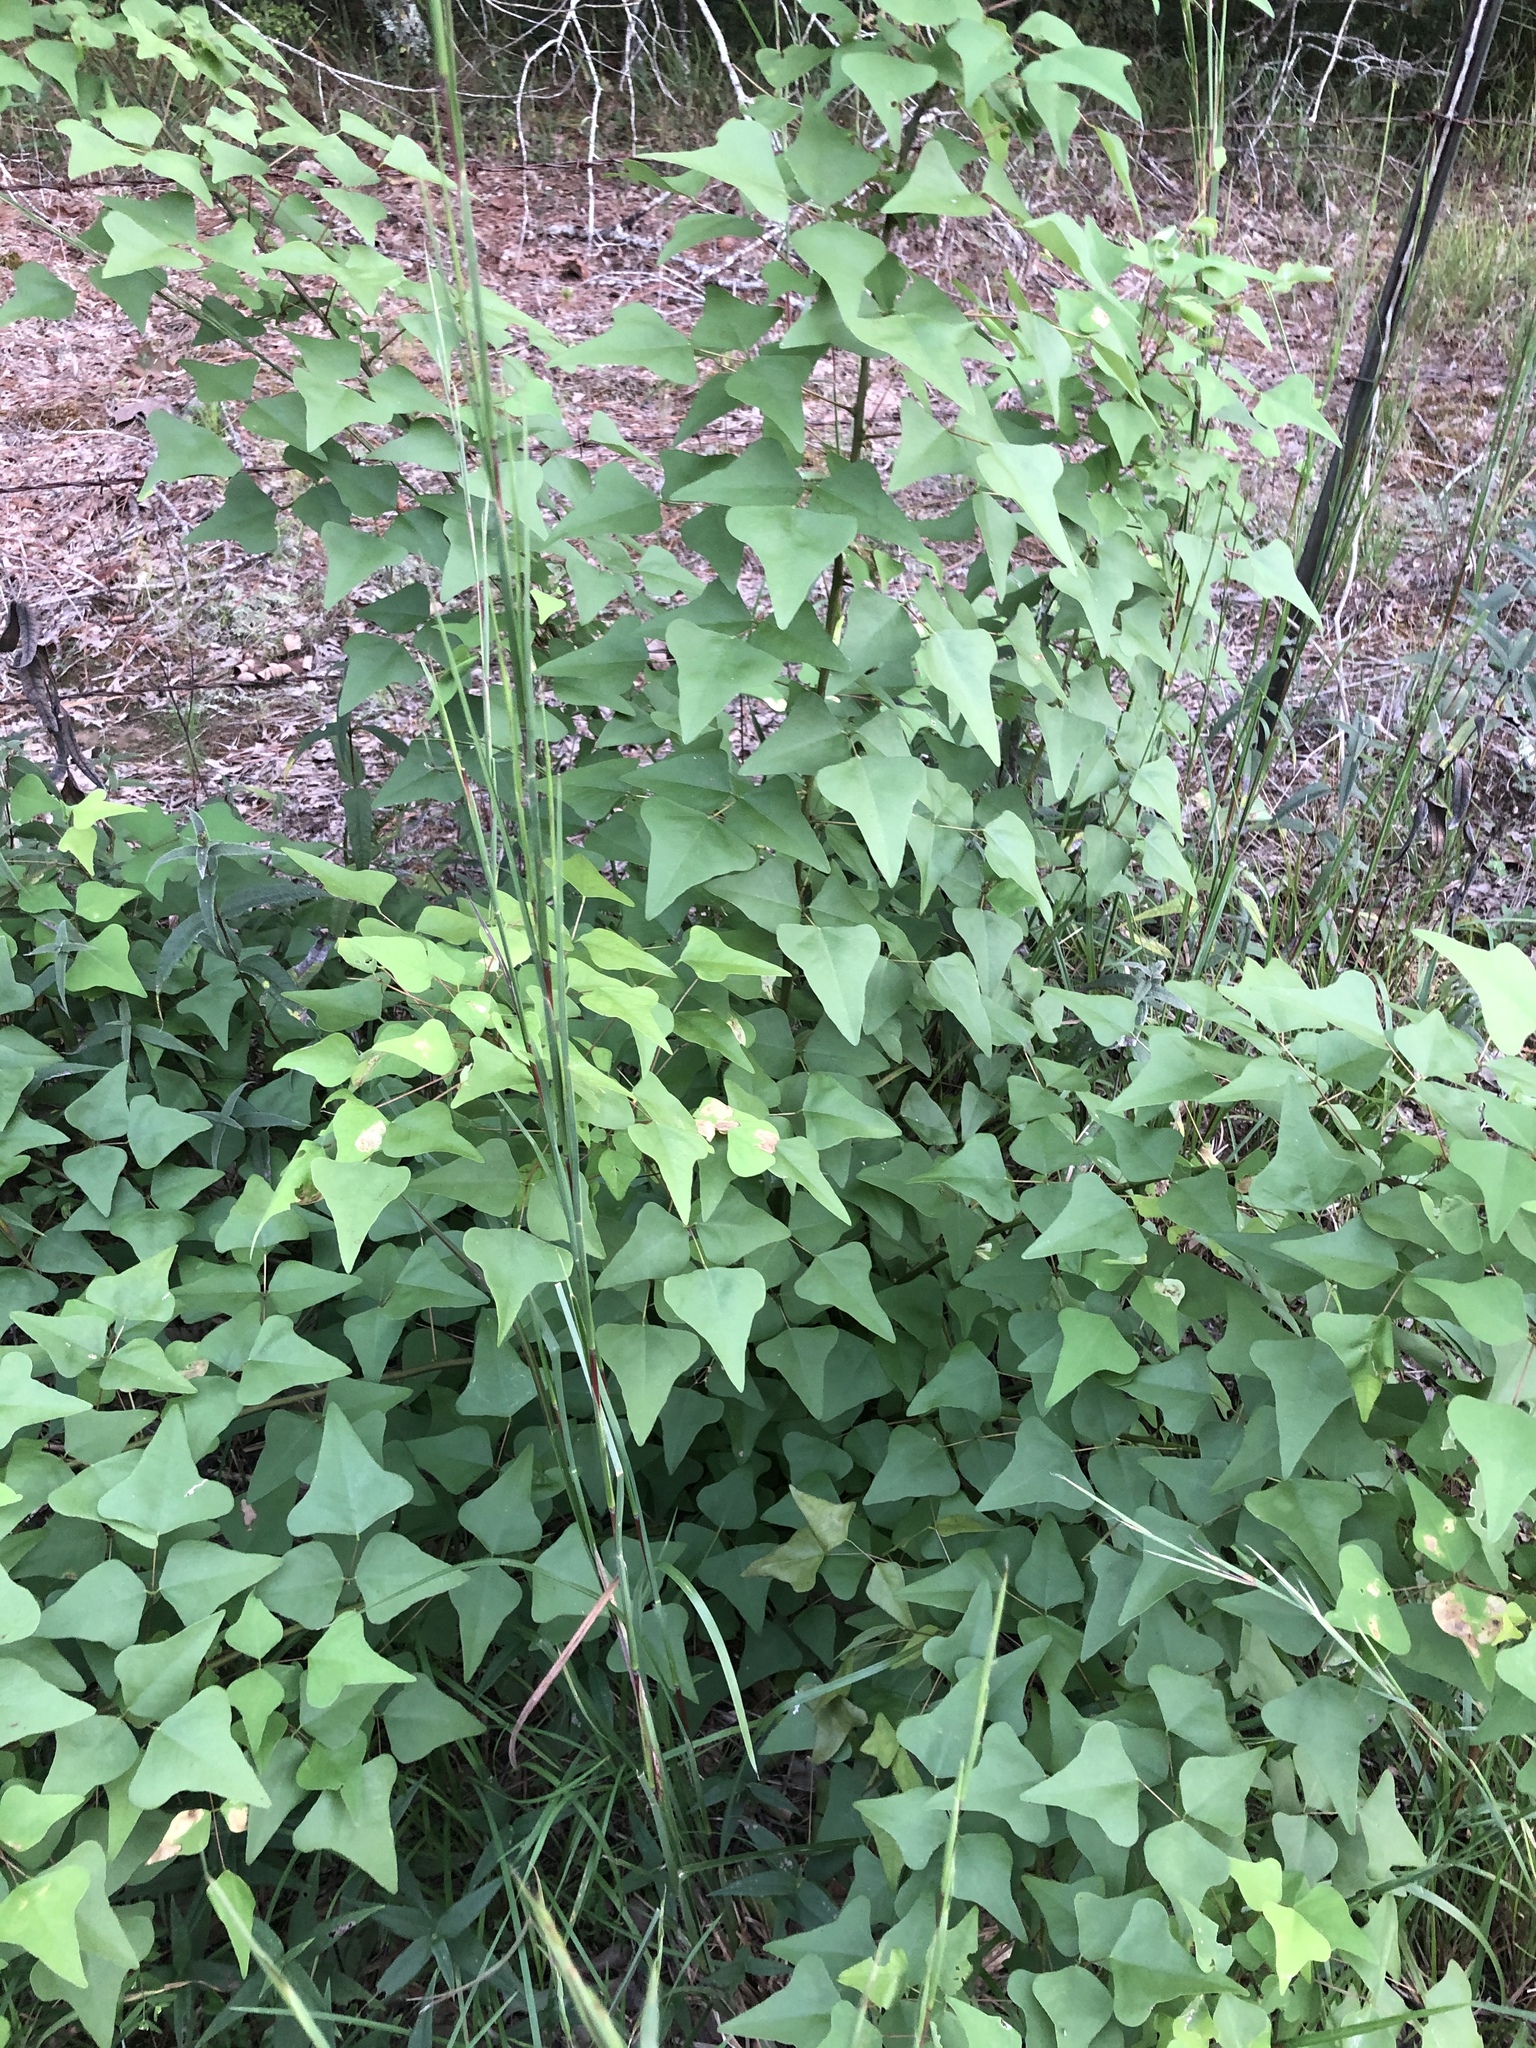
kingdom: Plantae
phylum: Tracheophyta
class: Magnoliopsida
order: Fabales
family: Fabaceae
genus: Erythrina
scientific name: Erythrina herbacea
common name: Coral-bean
